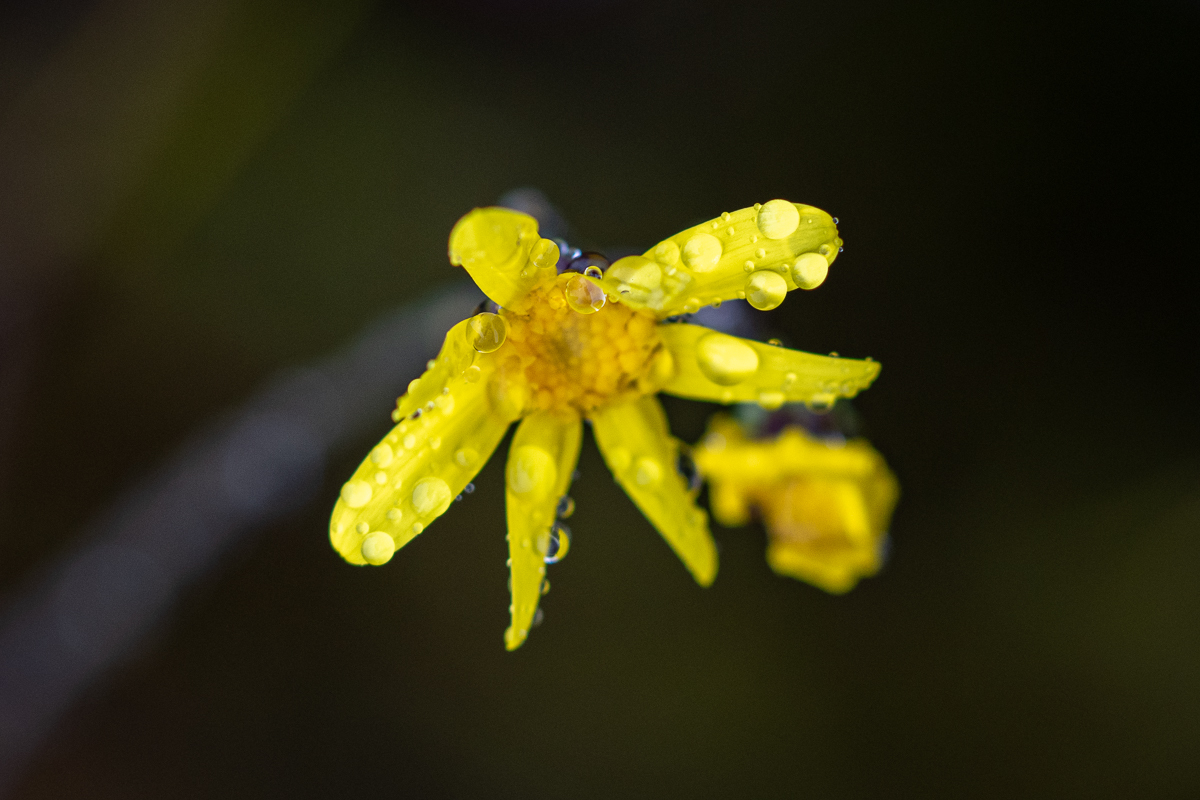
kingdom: Plantae
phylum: Tracheophyta
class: Magnoliopsida
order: Asterales
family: Asteraceae
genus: Othonna
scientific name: Othonna quinquedentata
